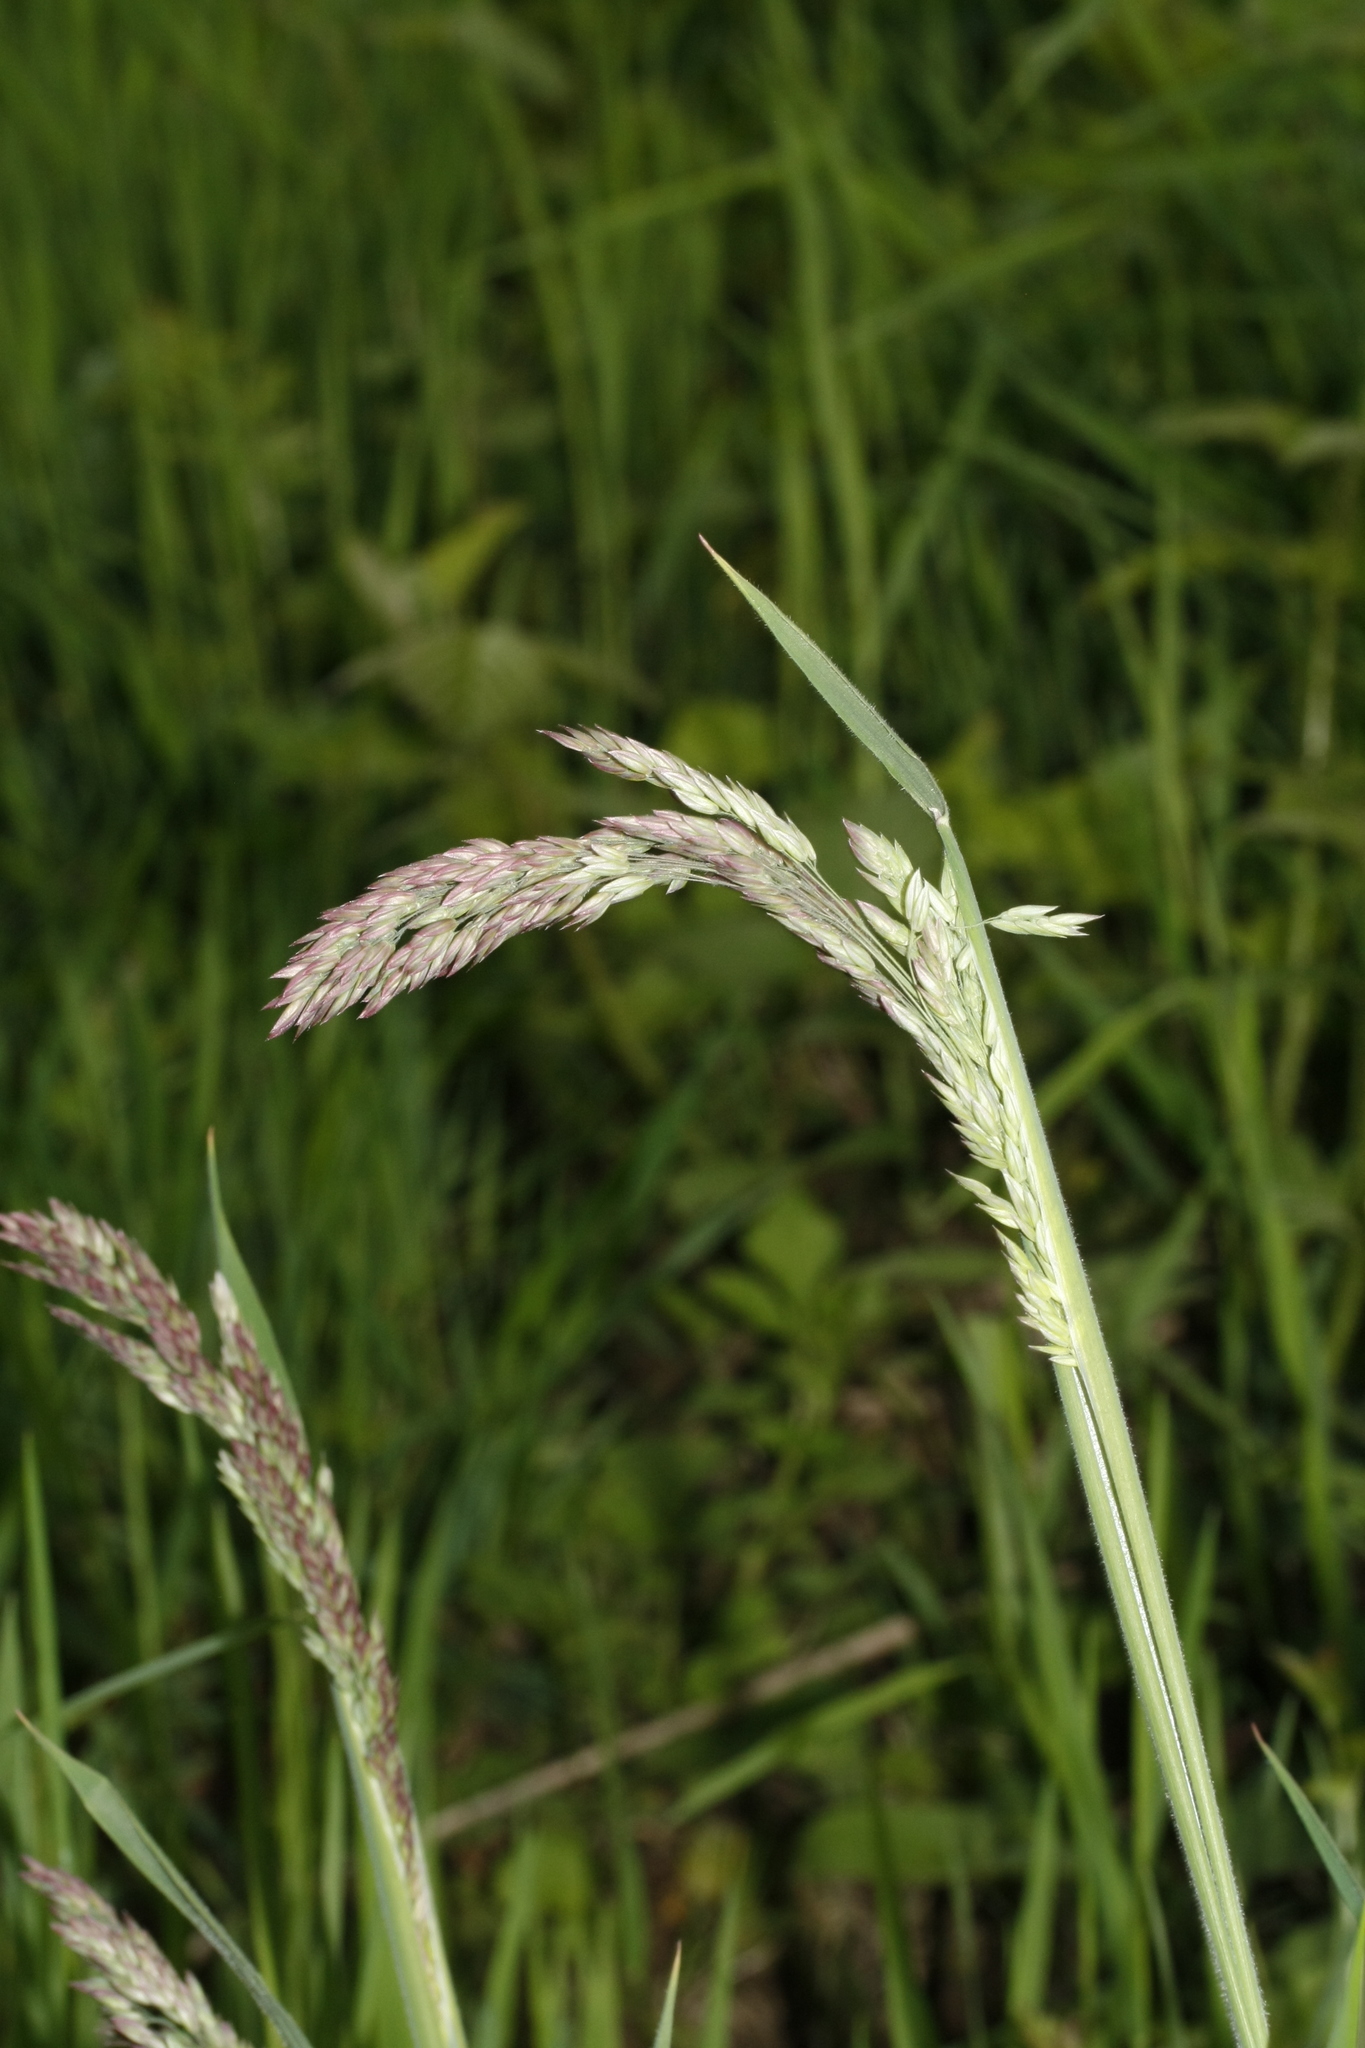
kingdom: Plantae
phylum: Tracheophyta
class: Liliopsida
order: Poales
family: Poaceae
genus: Holcus
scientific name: Holcus lanatus
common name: Yorkshire-fog
